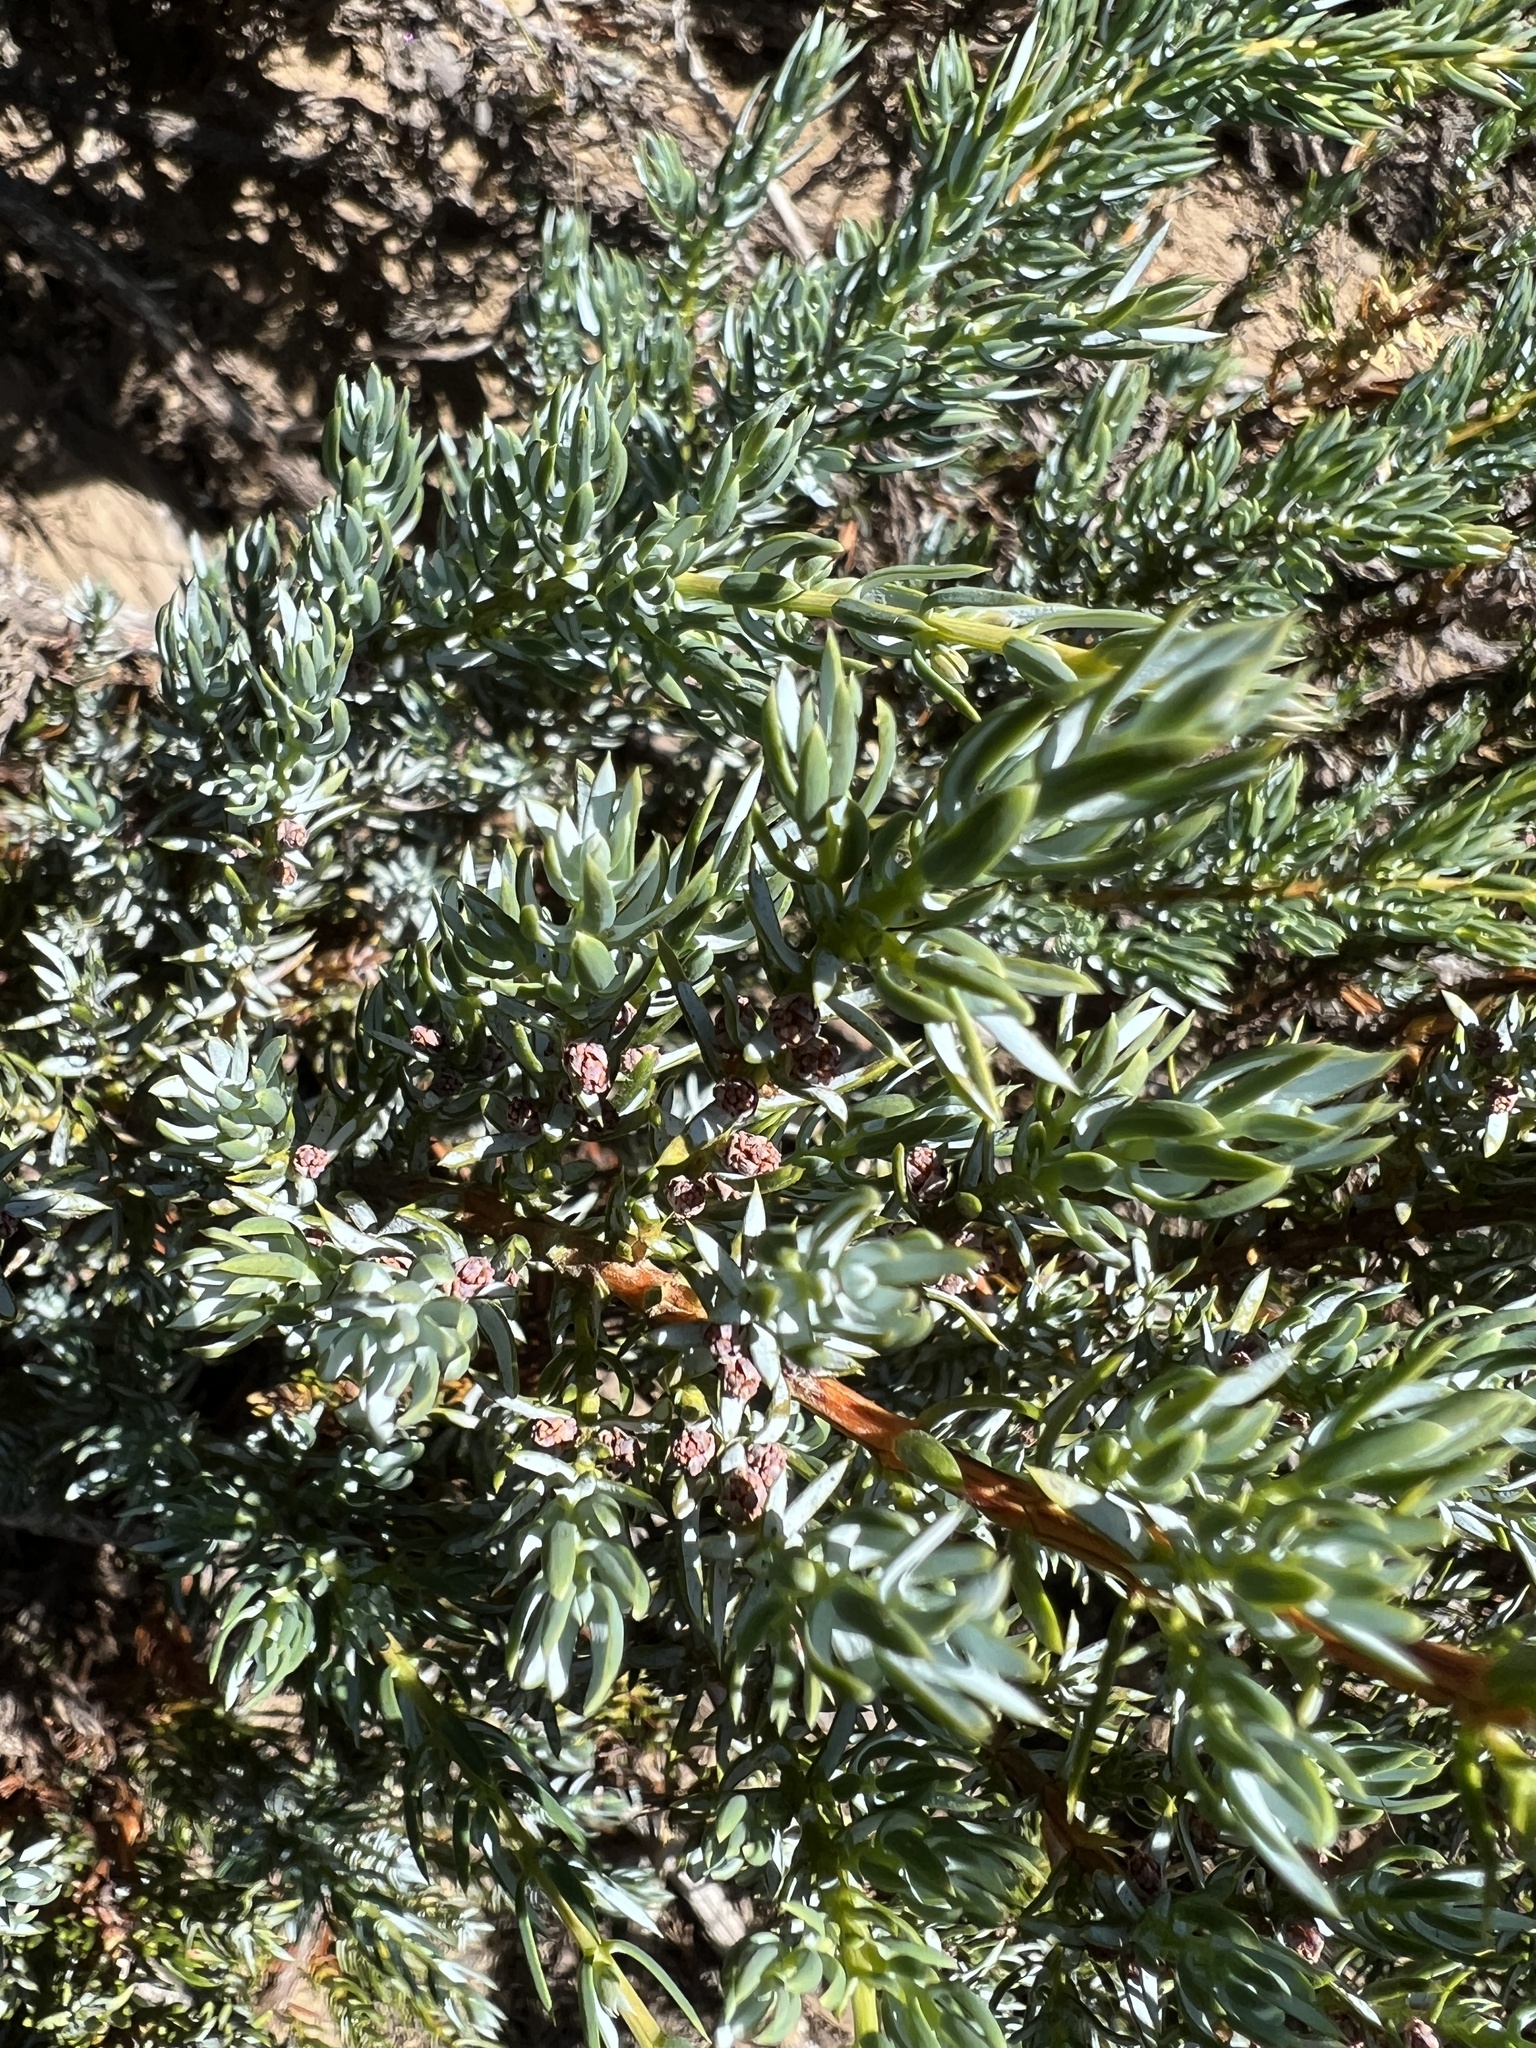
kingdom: Plantae
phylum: Tracheophyta
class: Pinopsida
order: Pinales
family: Cupressaceae
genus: Juniperus
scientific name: Juniperus communis
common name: Common juniper
